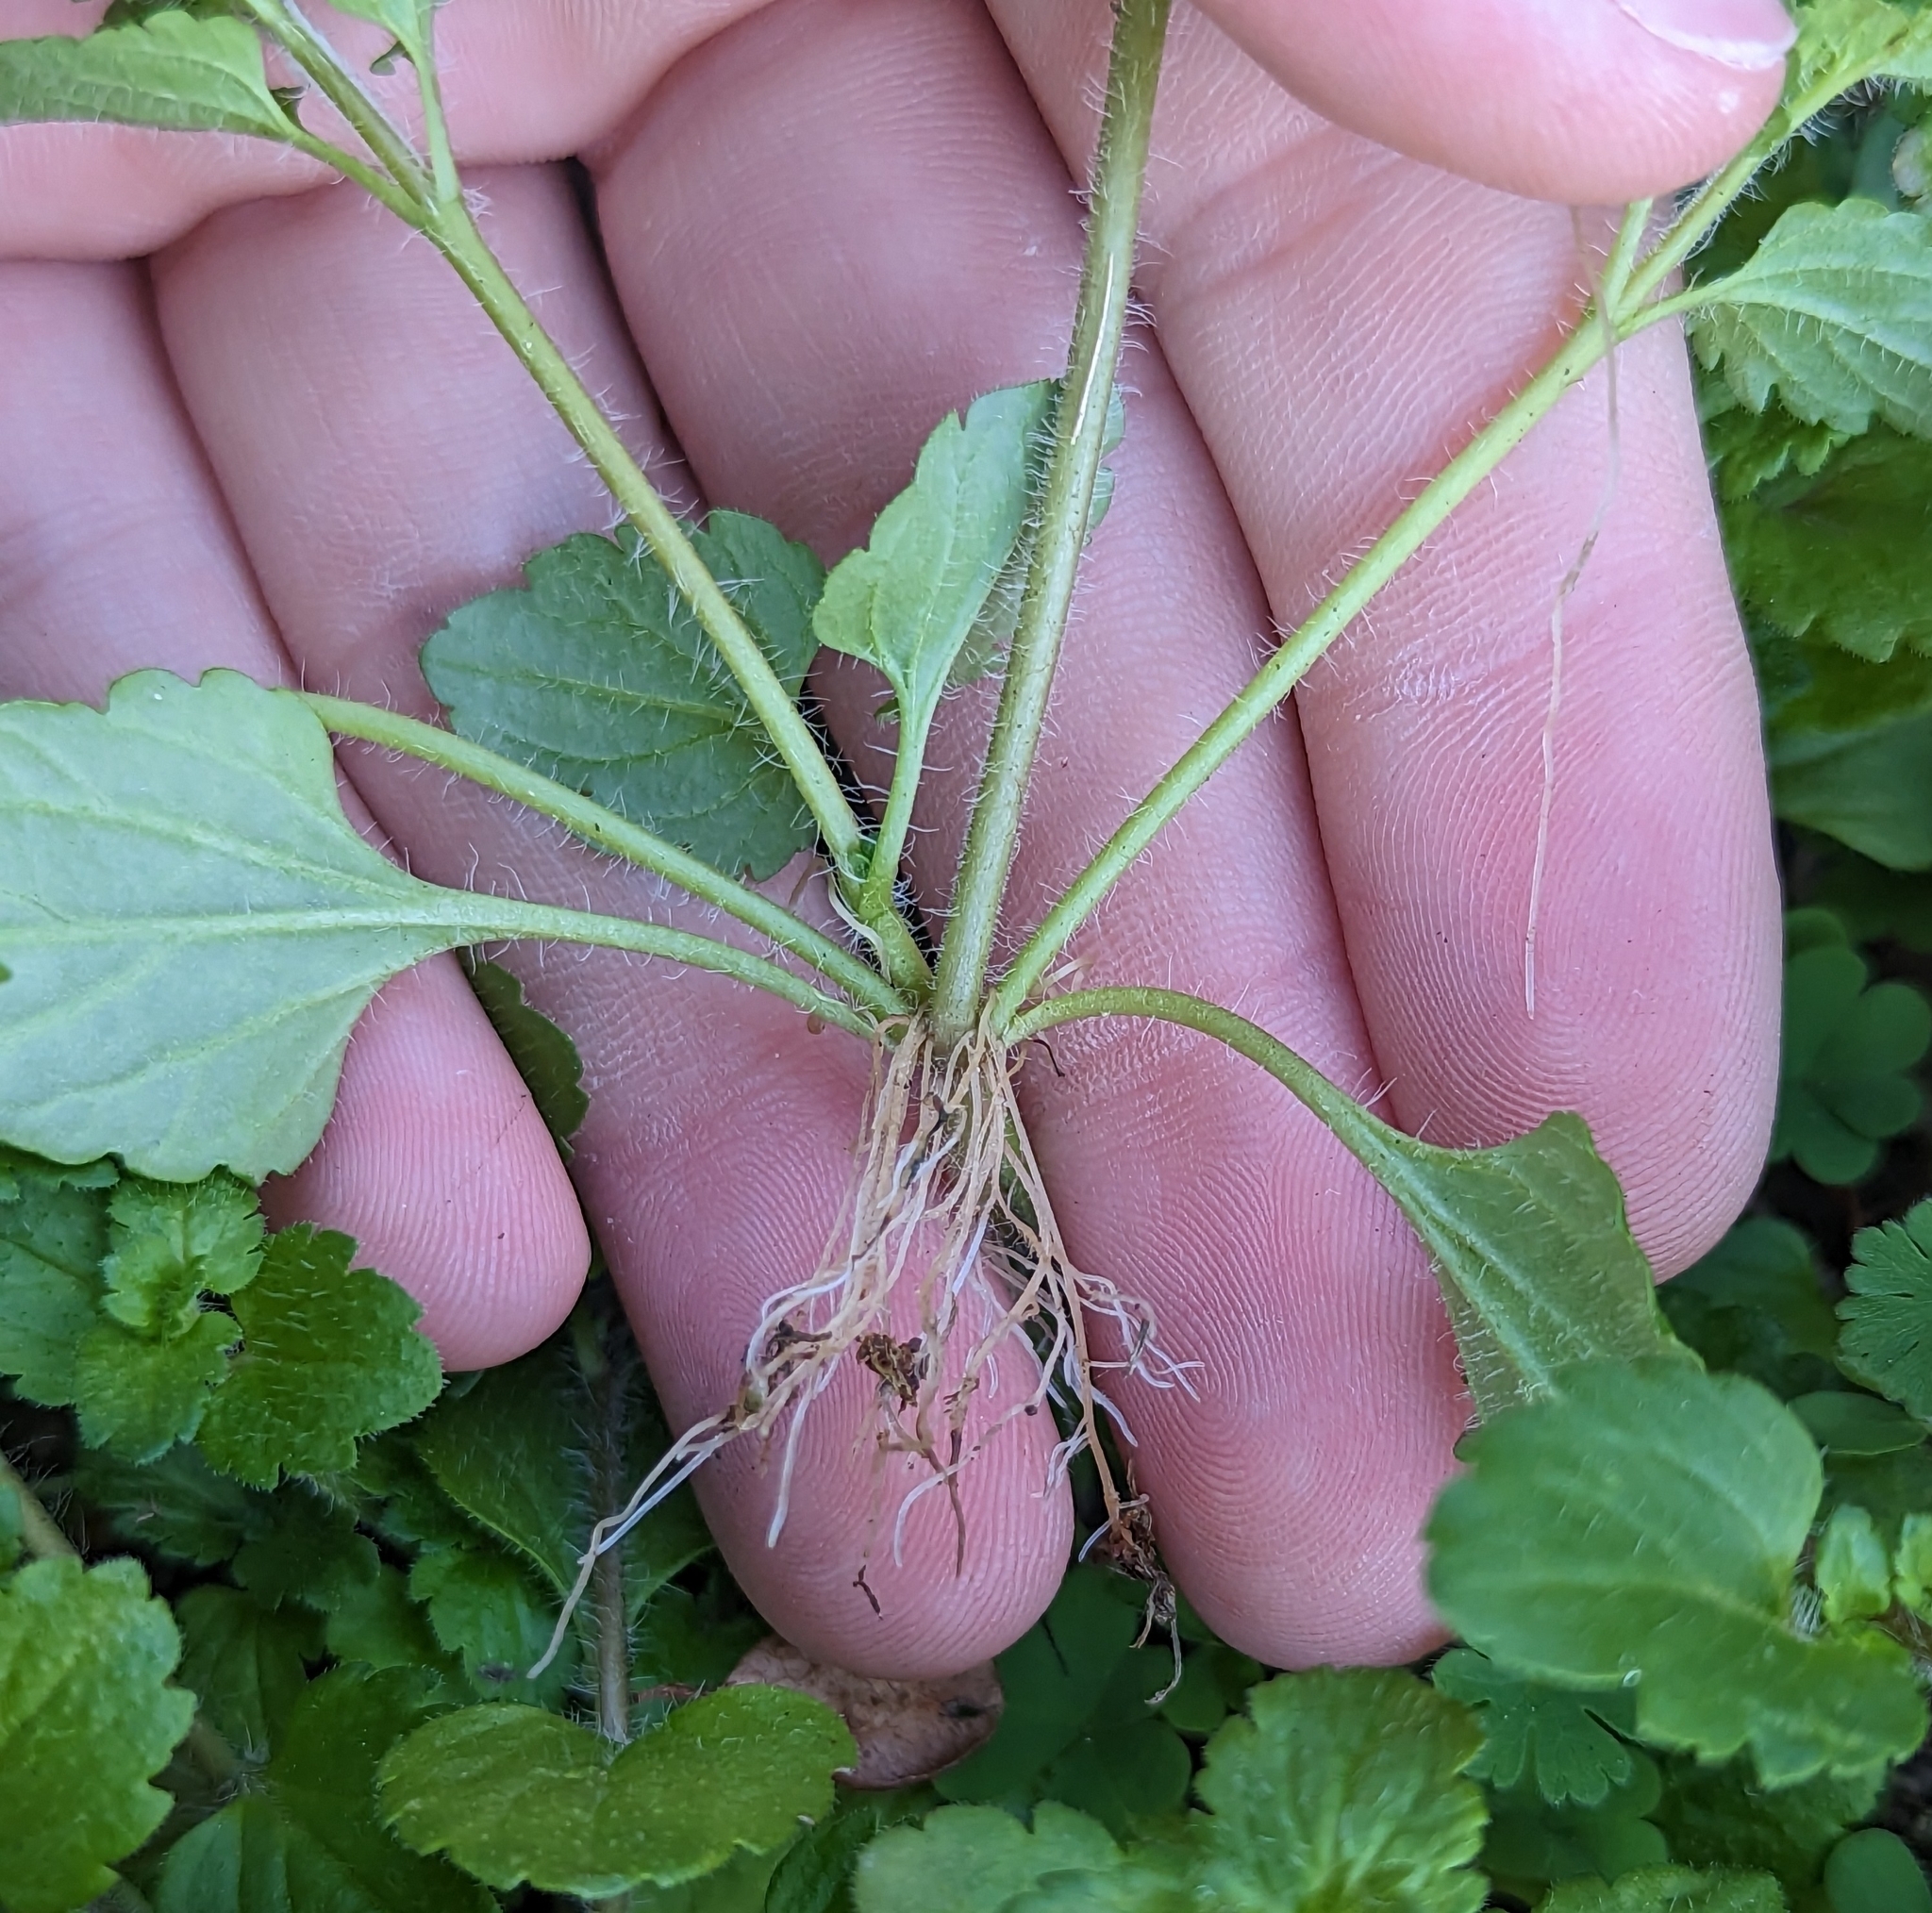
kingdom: Plantae
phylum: Tracheophyta
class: Magnoliopsida
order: Lamiales
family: Plantaginaceae
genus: Veronica
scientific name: Veronica persica
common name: Common field-speedwell
